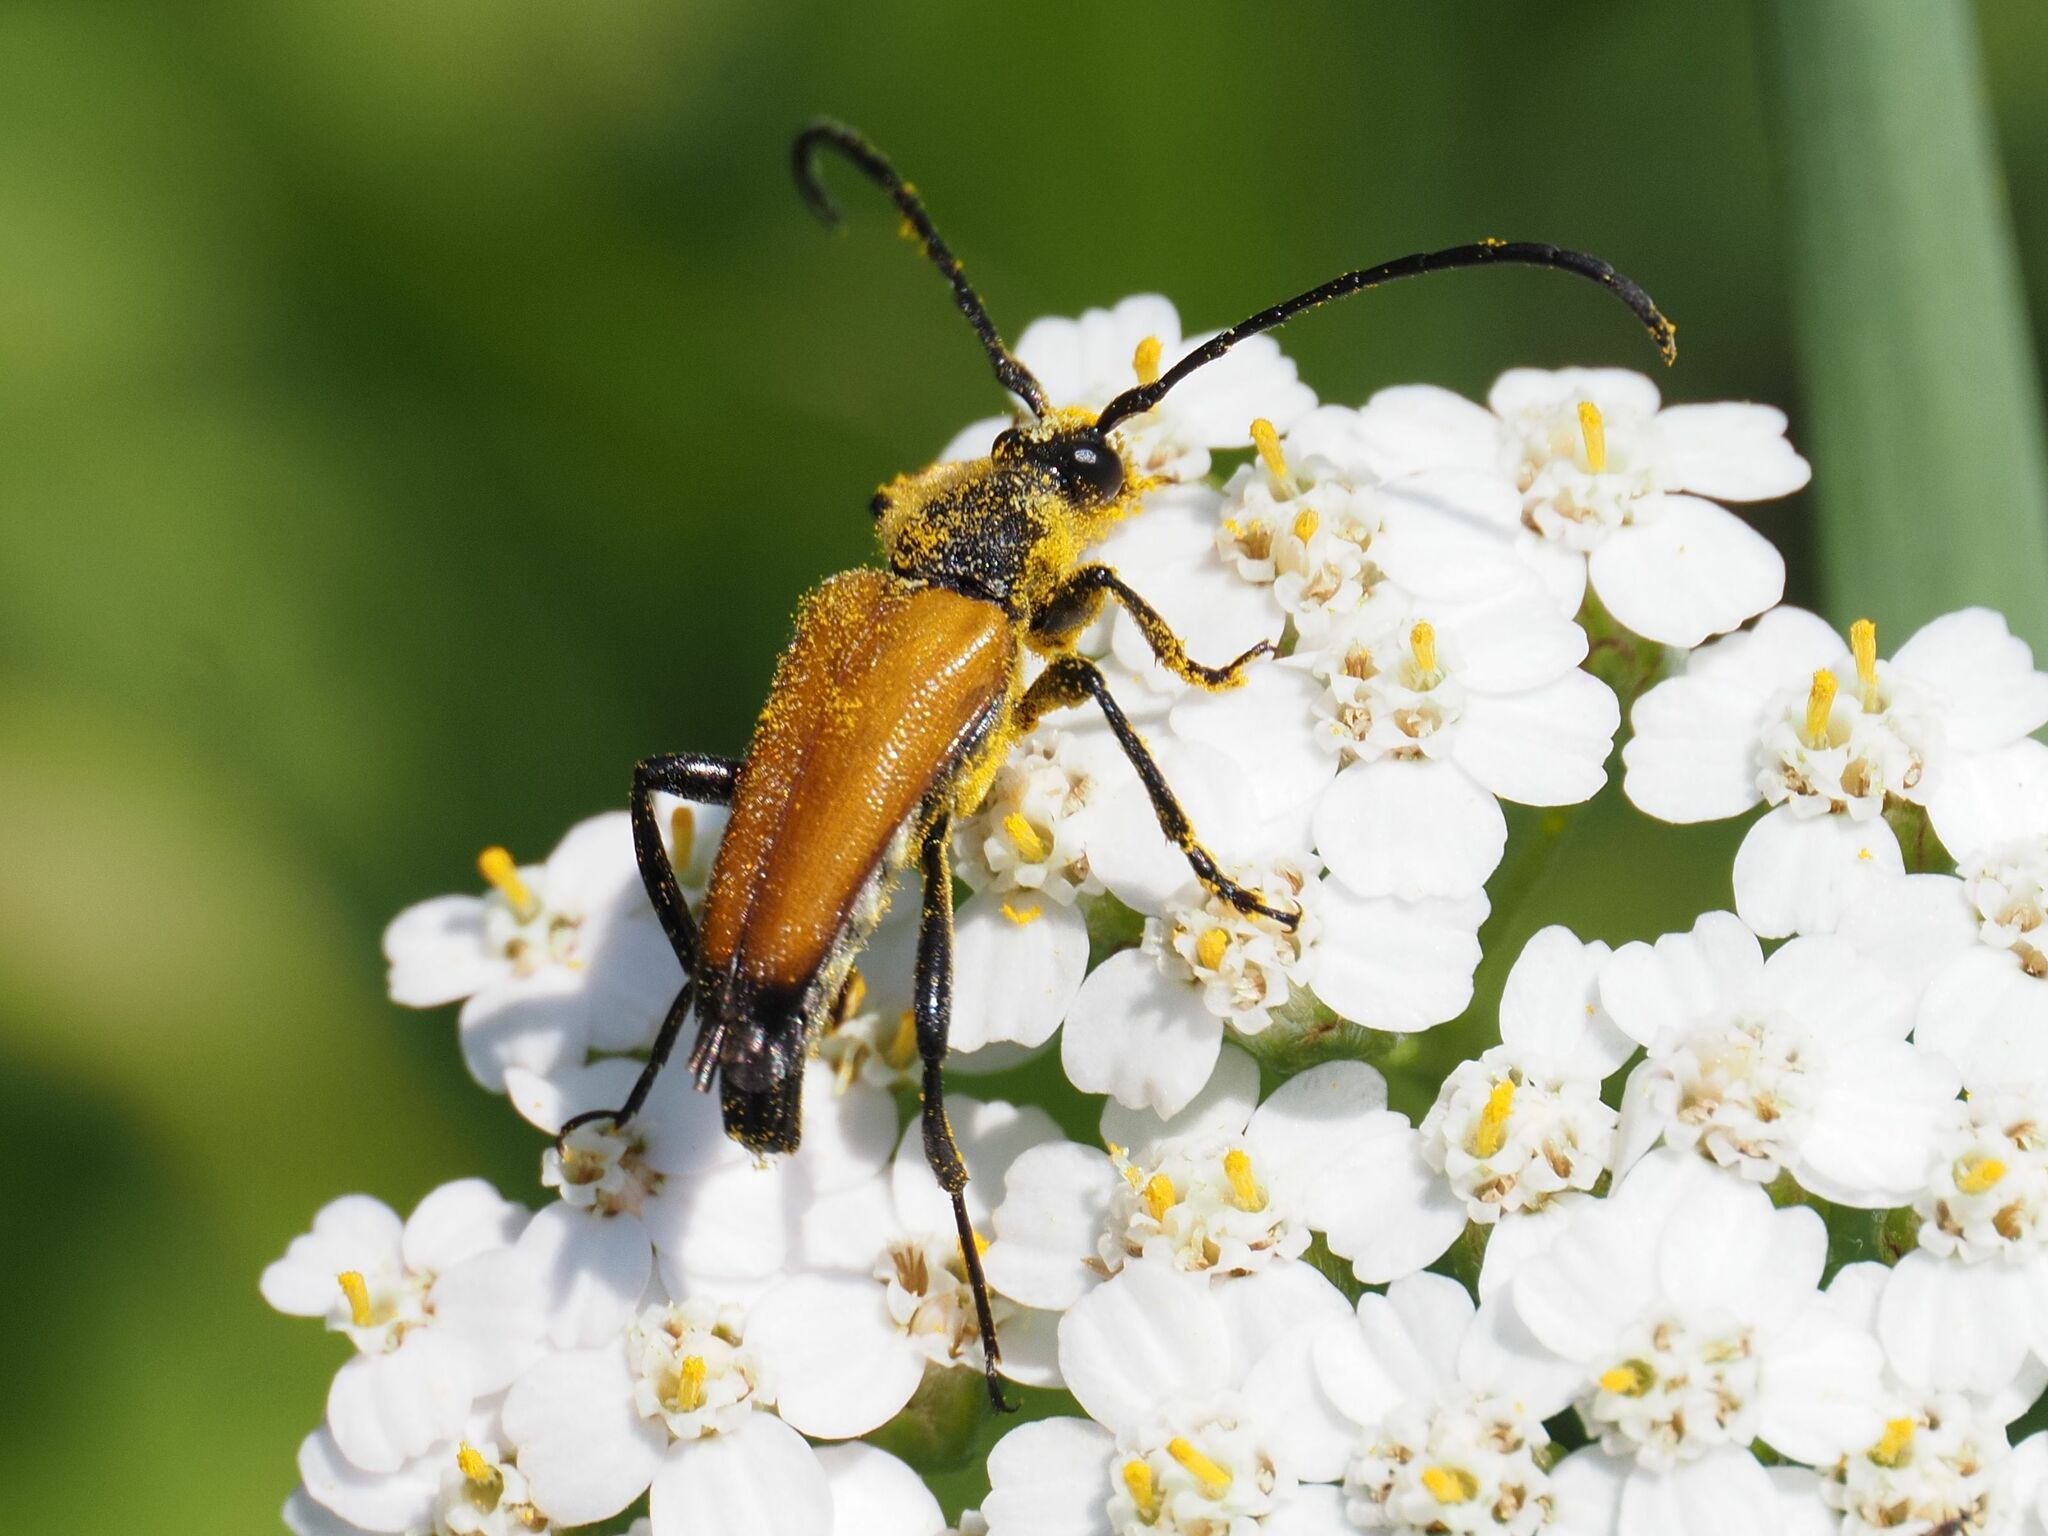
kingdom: Animalia
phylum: Arthropoda
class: Insecta
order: Coleoptera
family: Cerambycidae
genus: Paracorymbia
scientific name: Paracorymbia fulva
